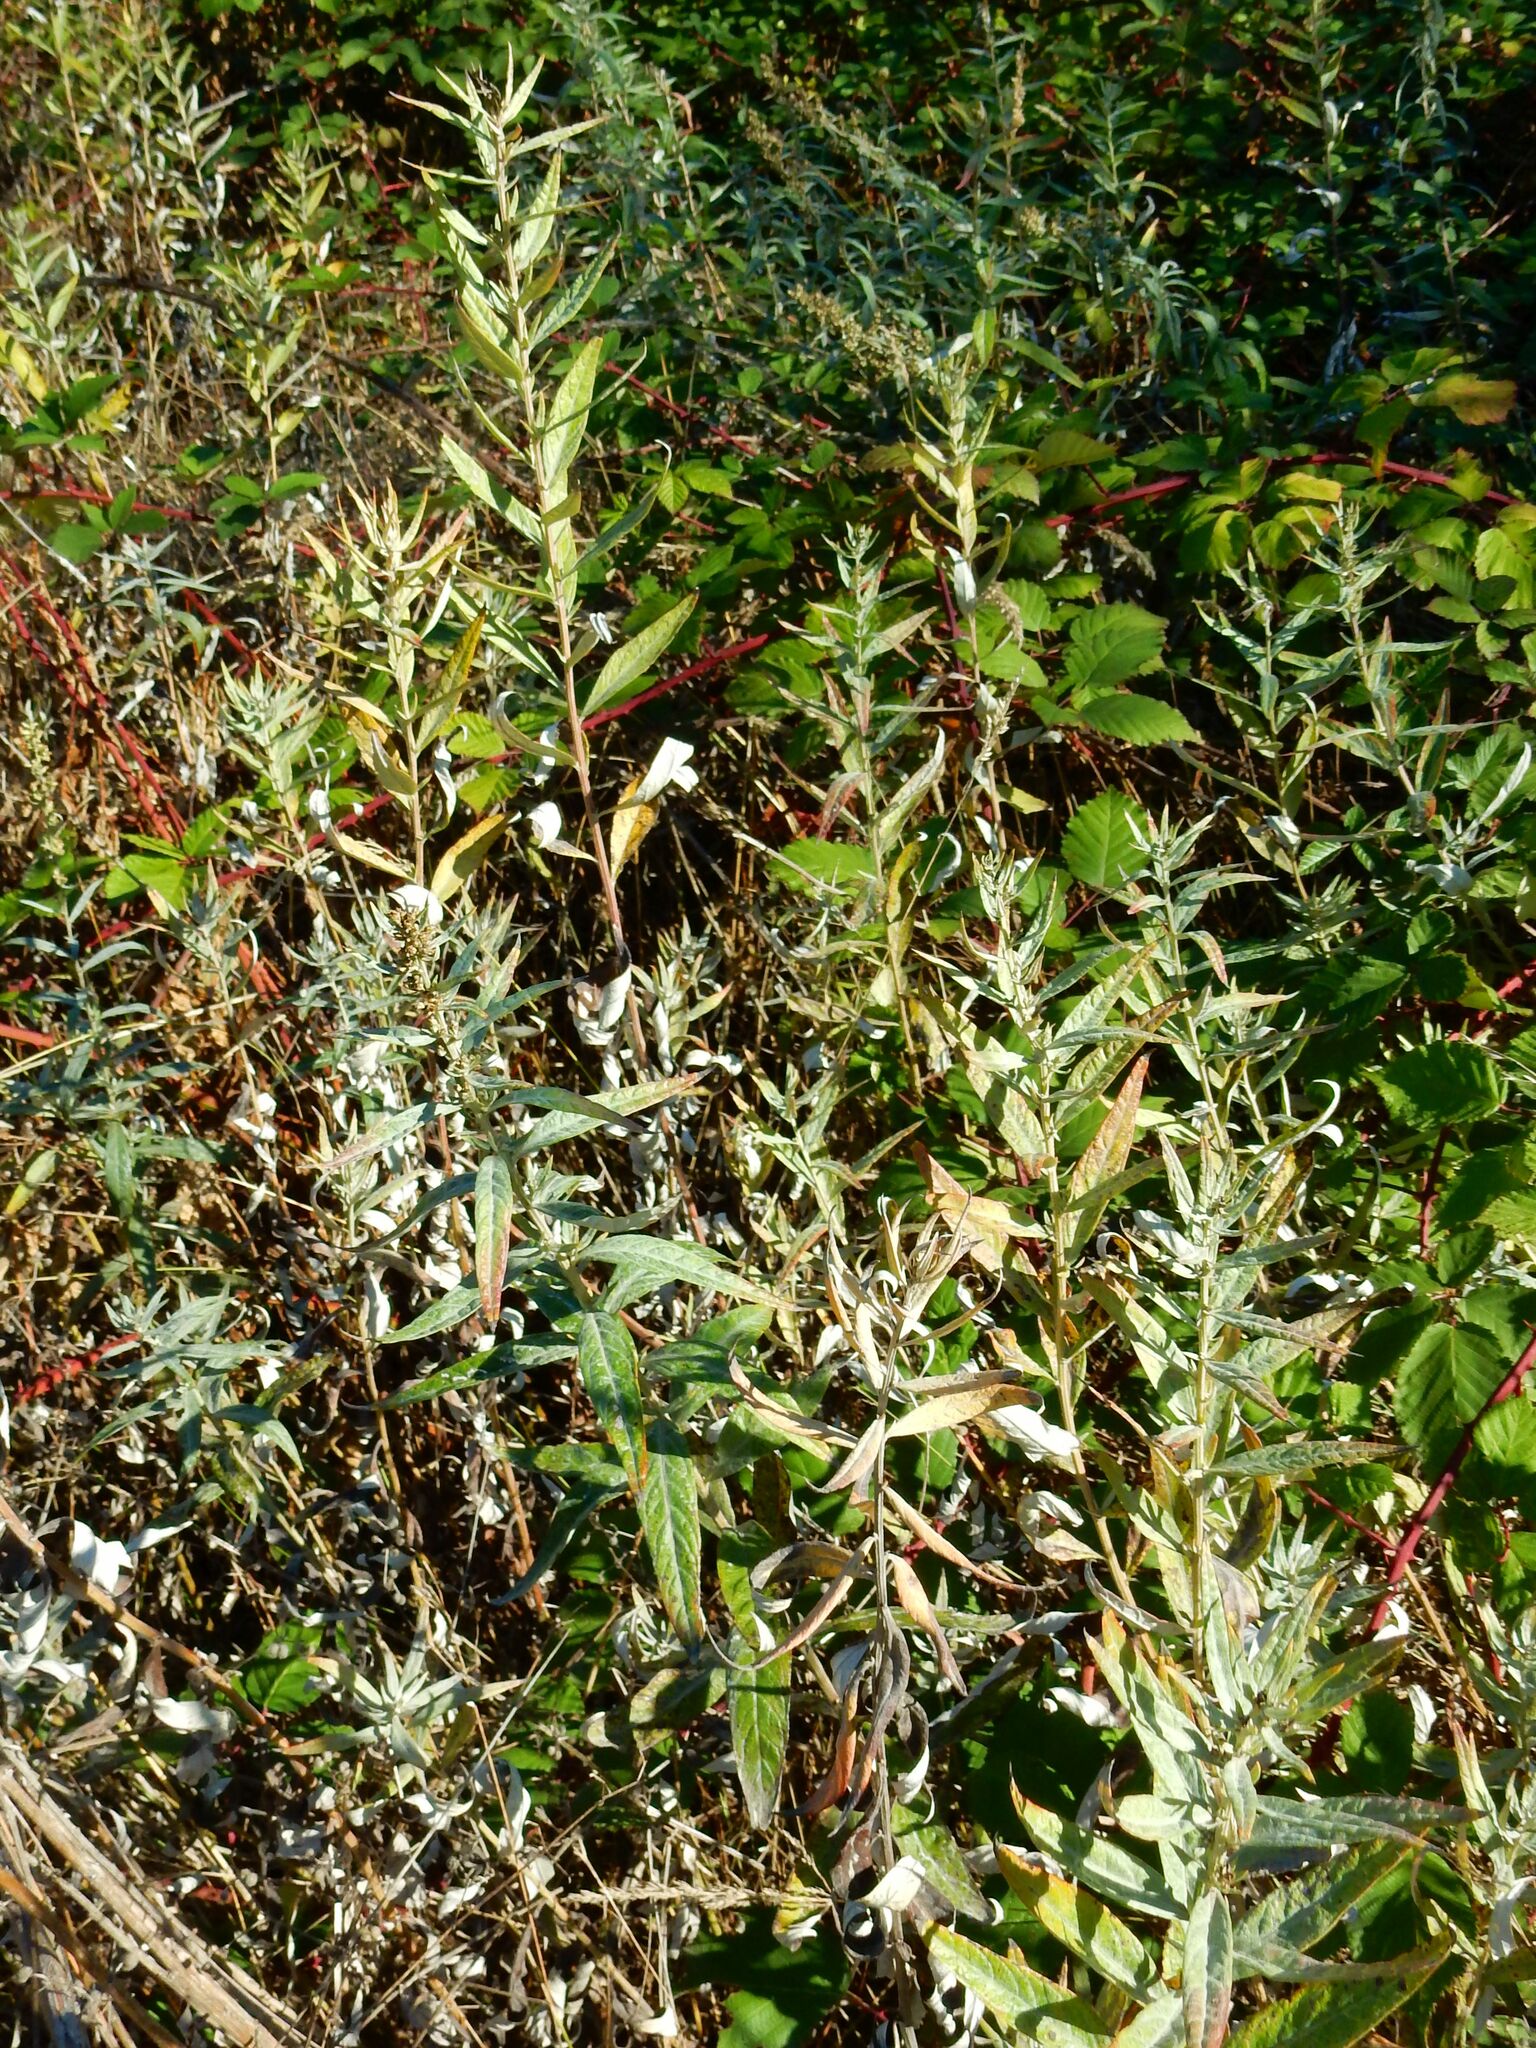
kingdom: Plantae
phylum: Tracheophyta
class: Magnoliopsida
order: Asterales
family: Asteraceae
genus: Artemisia
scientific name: Artemisia douglasiana
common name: Northwest mugwort
